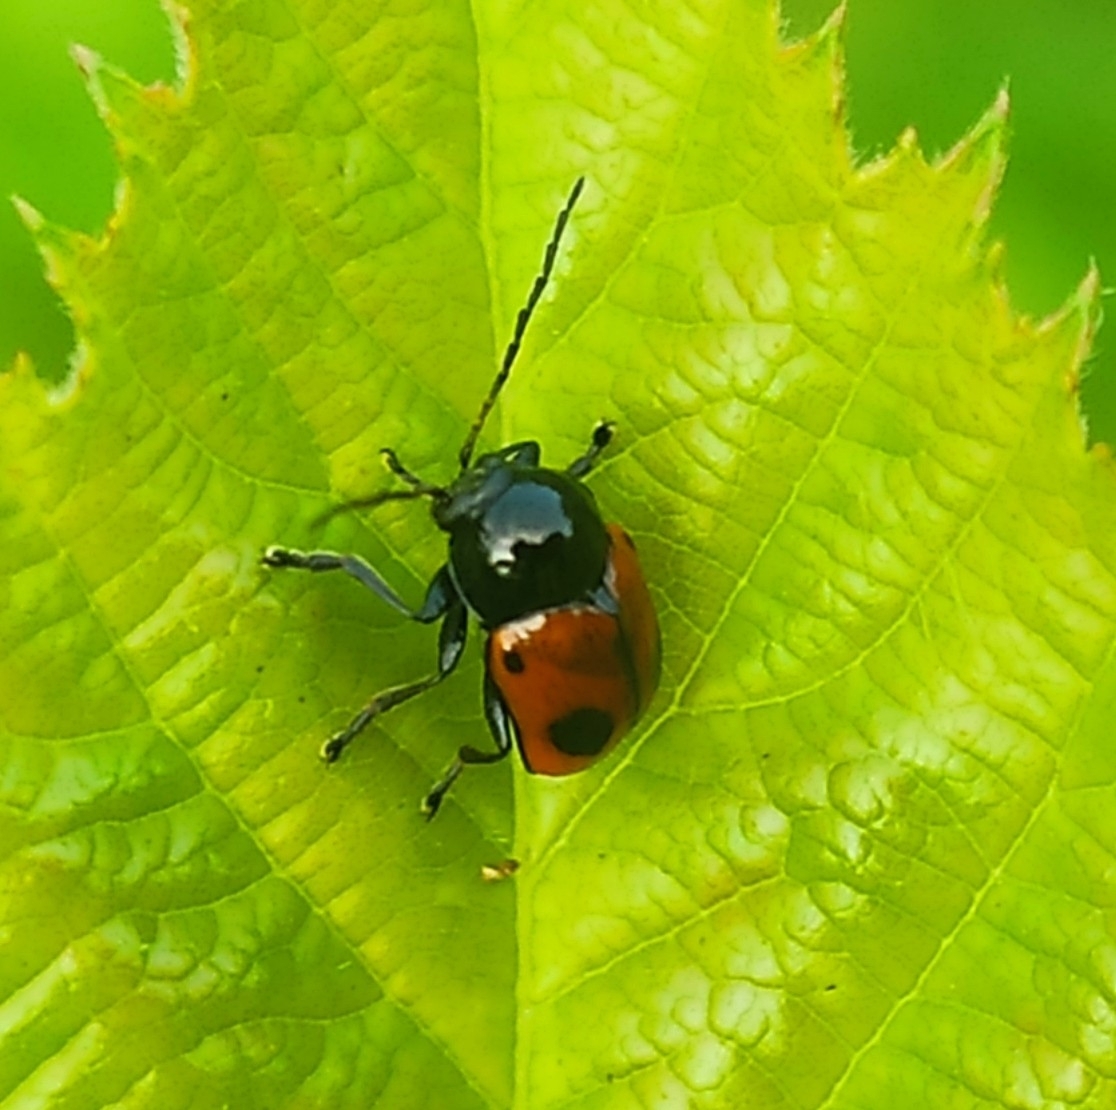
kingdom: Animalia
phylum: Arthropoda
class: Insecta
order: Coleoptera
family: Chrysomelidae
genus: Chiridopsis
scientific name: Chiridopsis bipunctata
